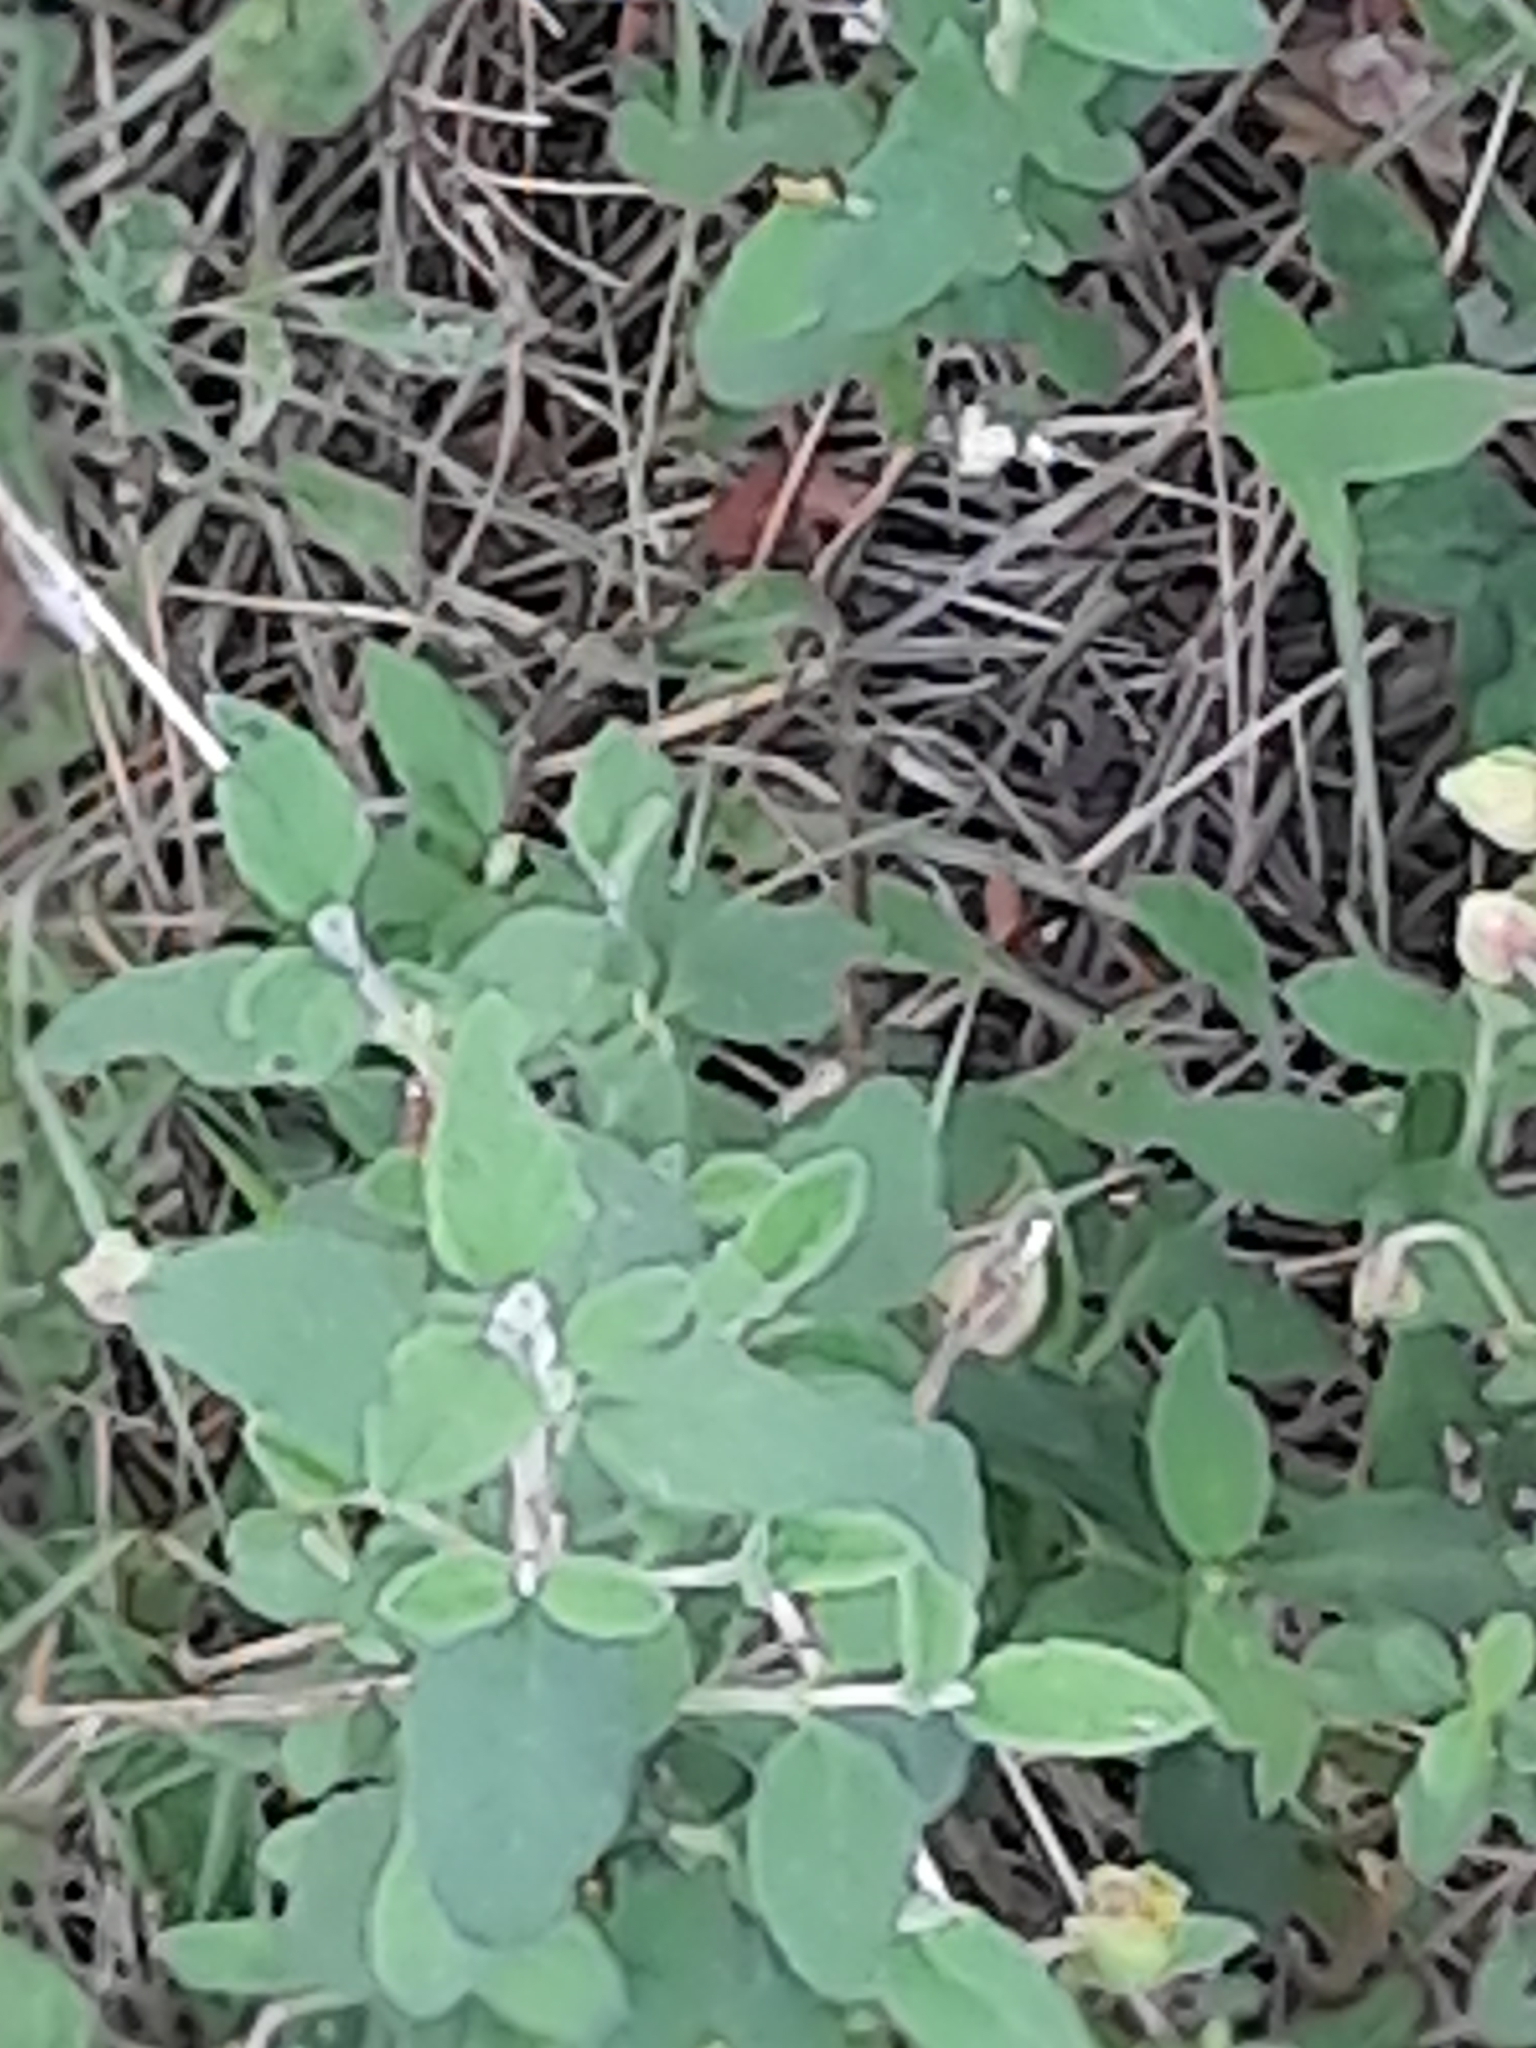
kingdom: Plantae
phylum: Tracheophyta
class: Magnoliopsida
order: Malvales
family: Cistaceae
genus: Cistus
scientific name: Cistus salviifolius
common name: Salvia cistus
